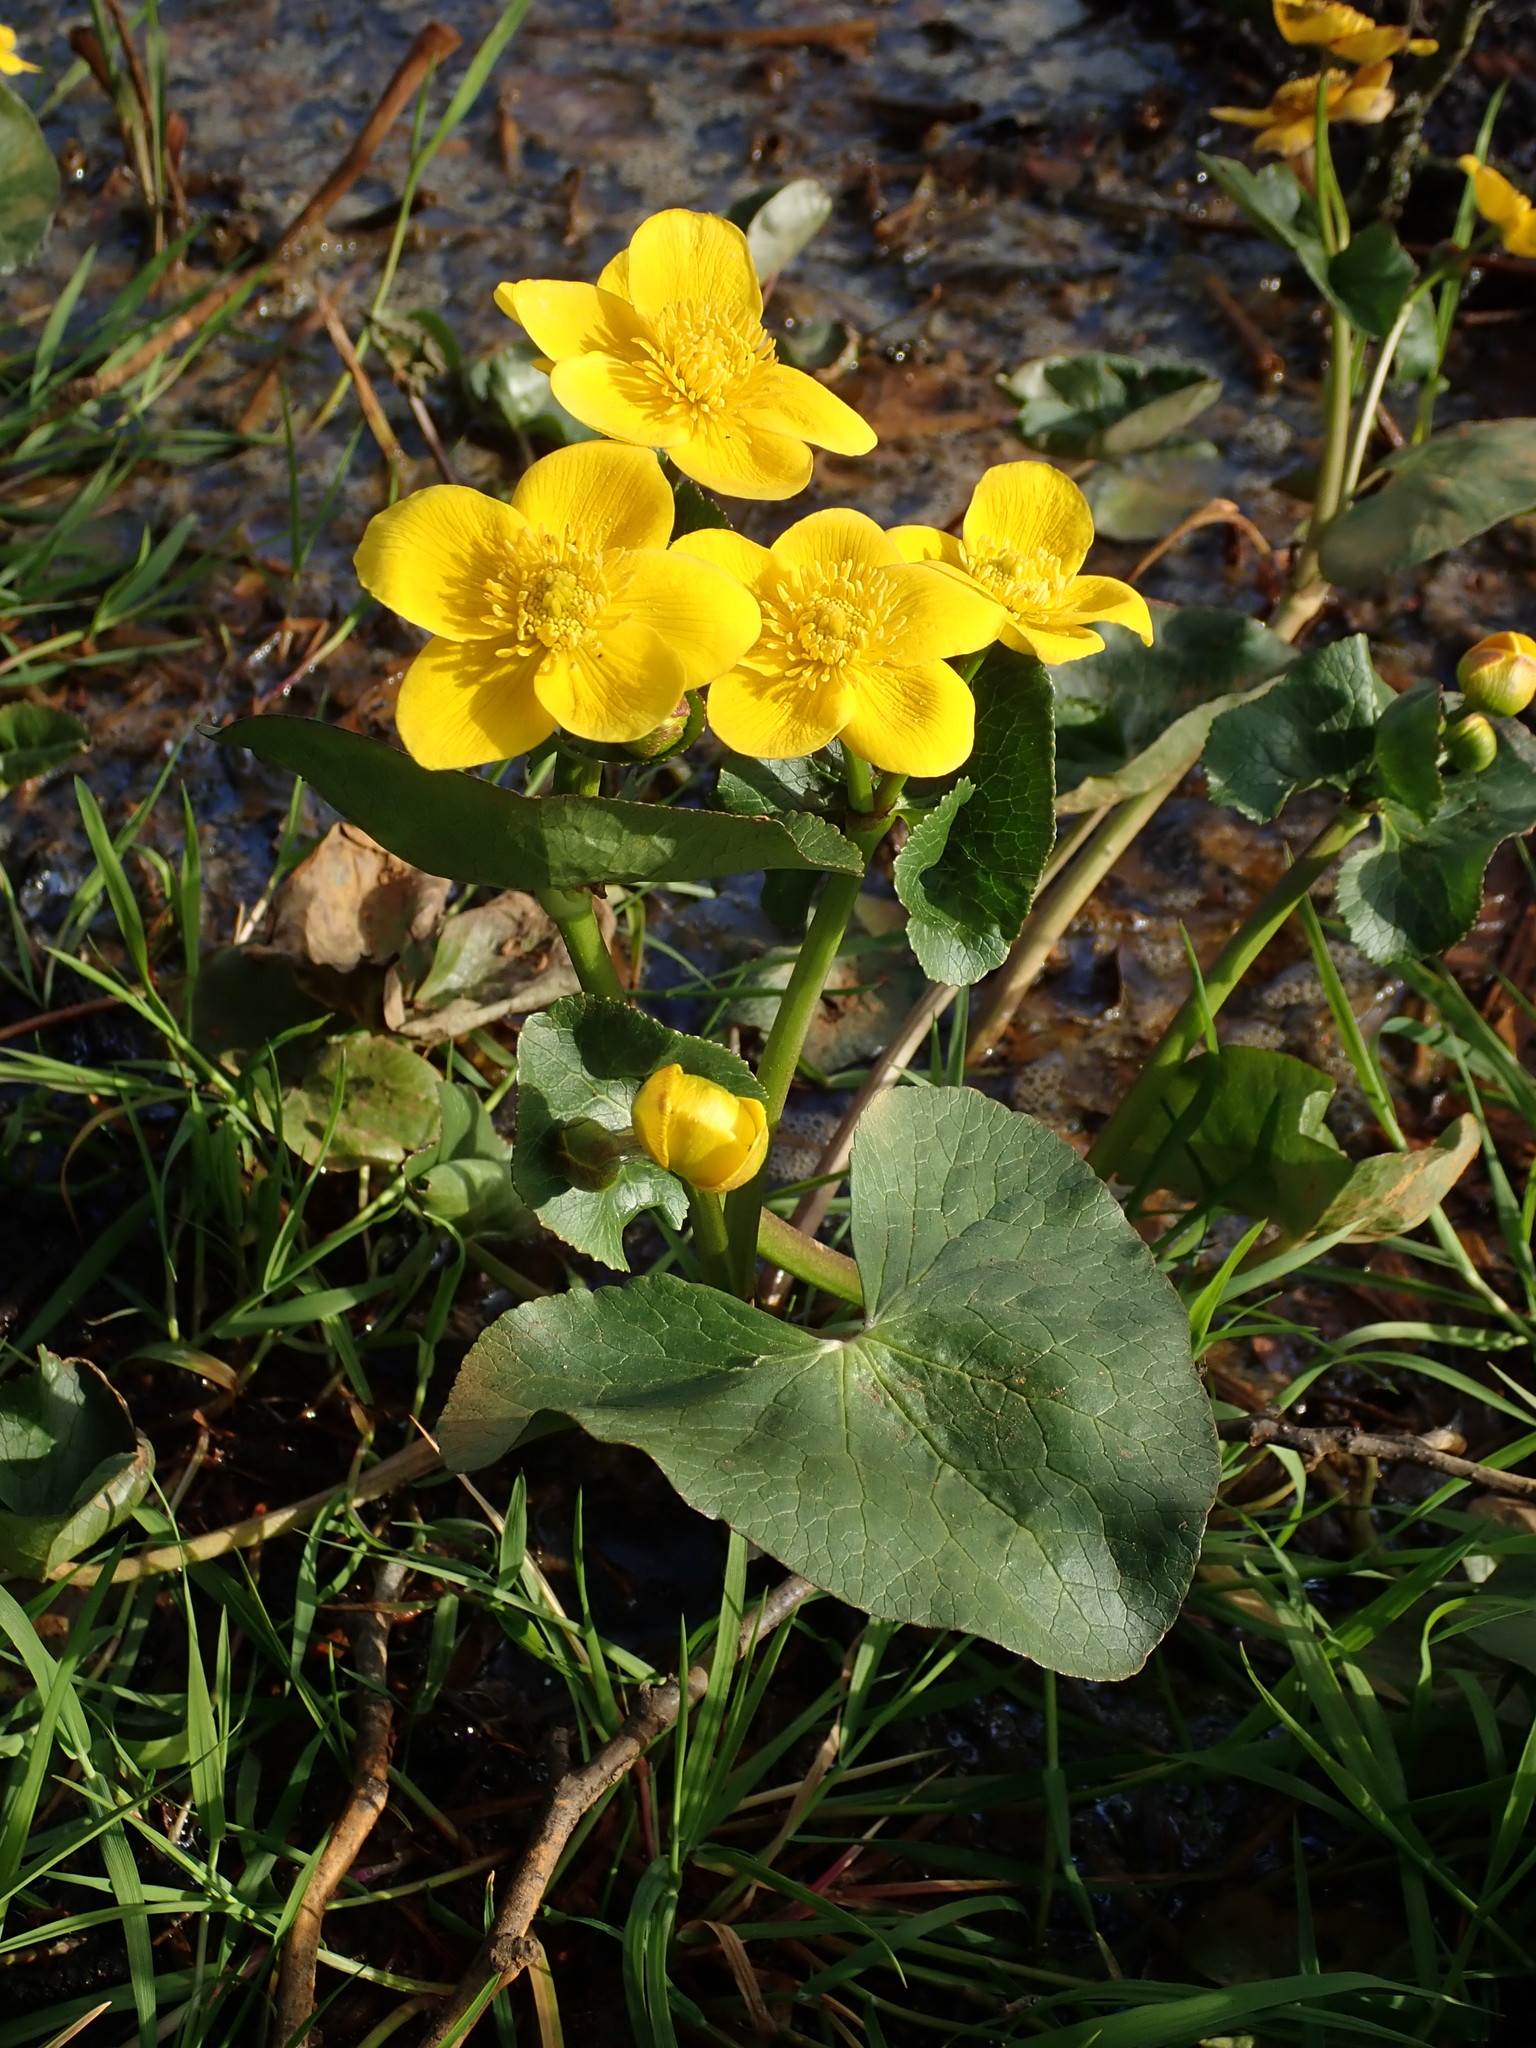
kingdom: Plantae
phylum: Tracheophyta
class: Magnoliopsida
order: Ranunculales
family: Ranunculaceae
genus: Caltha
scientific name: Caltha palustris
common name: Marsh marigold
